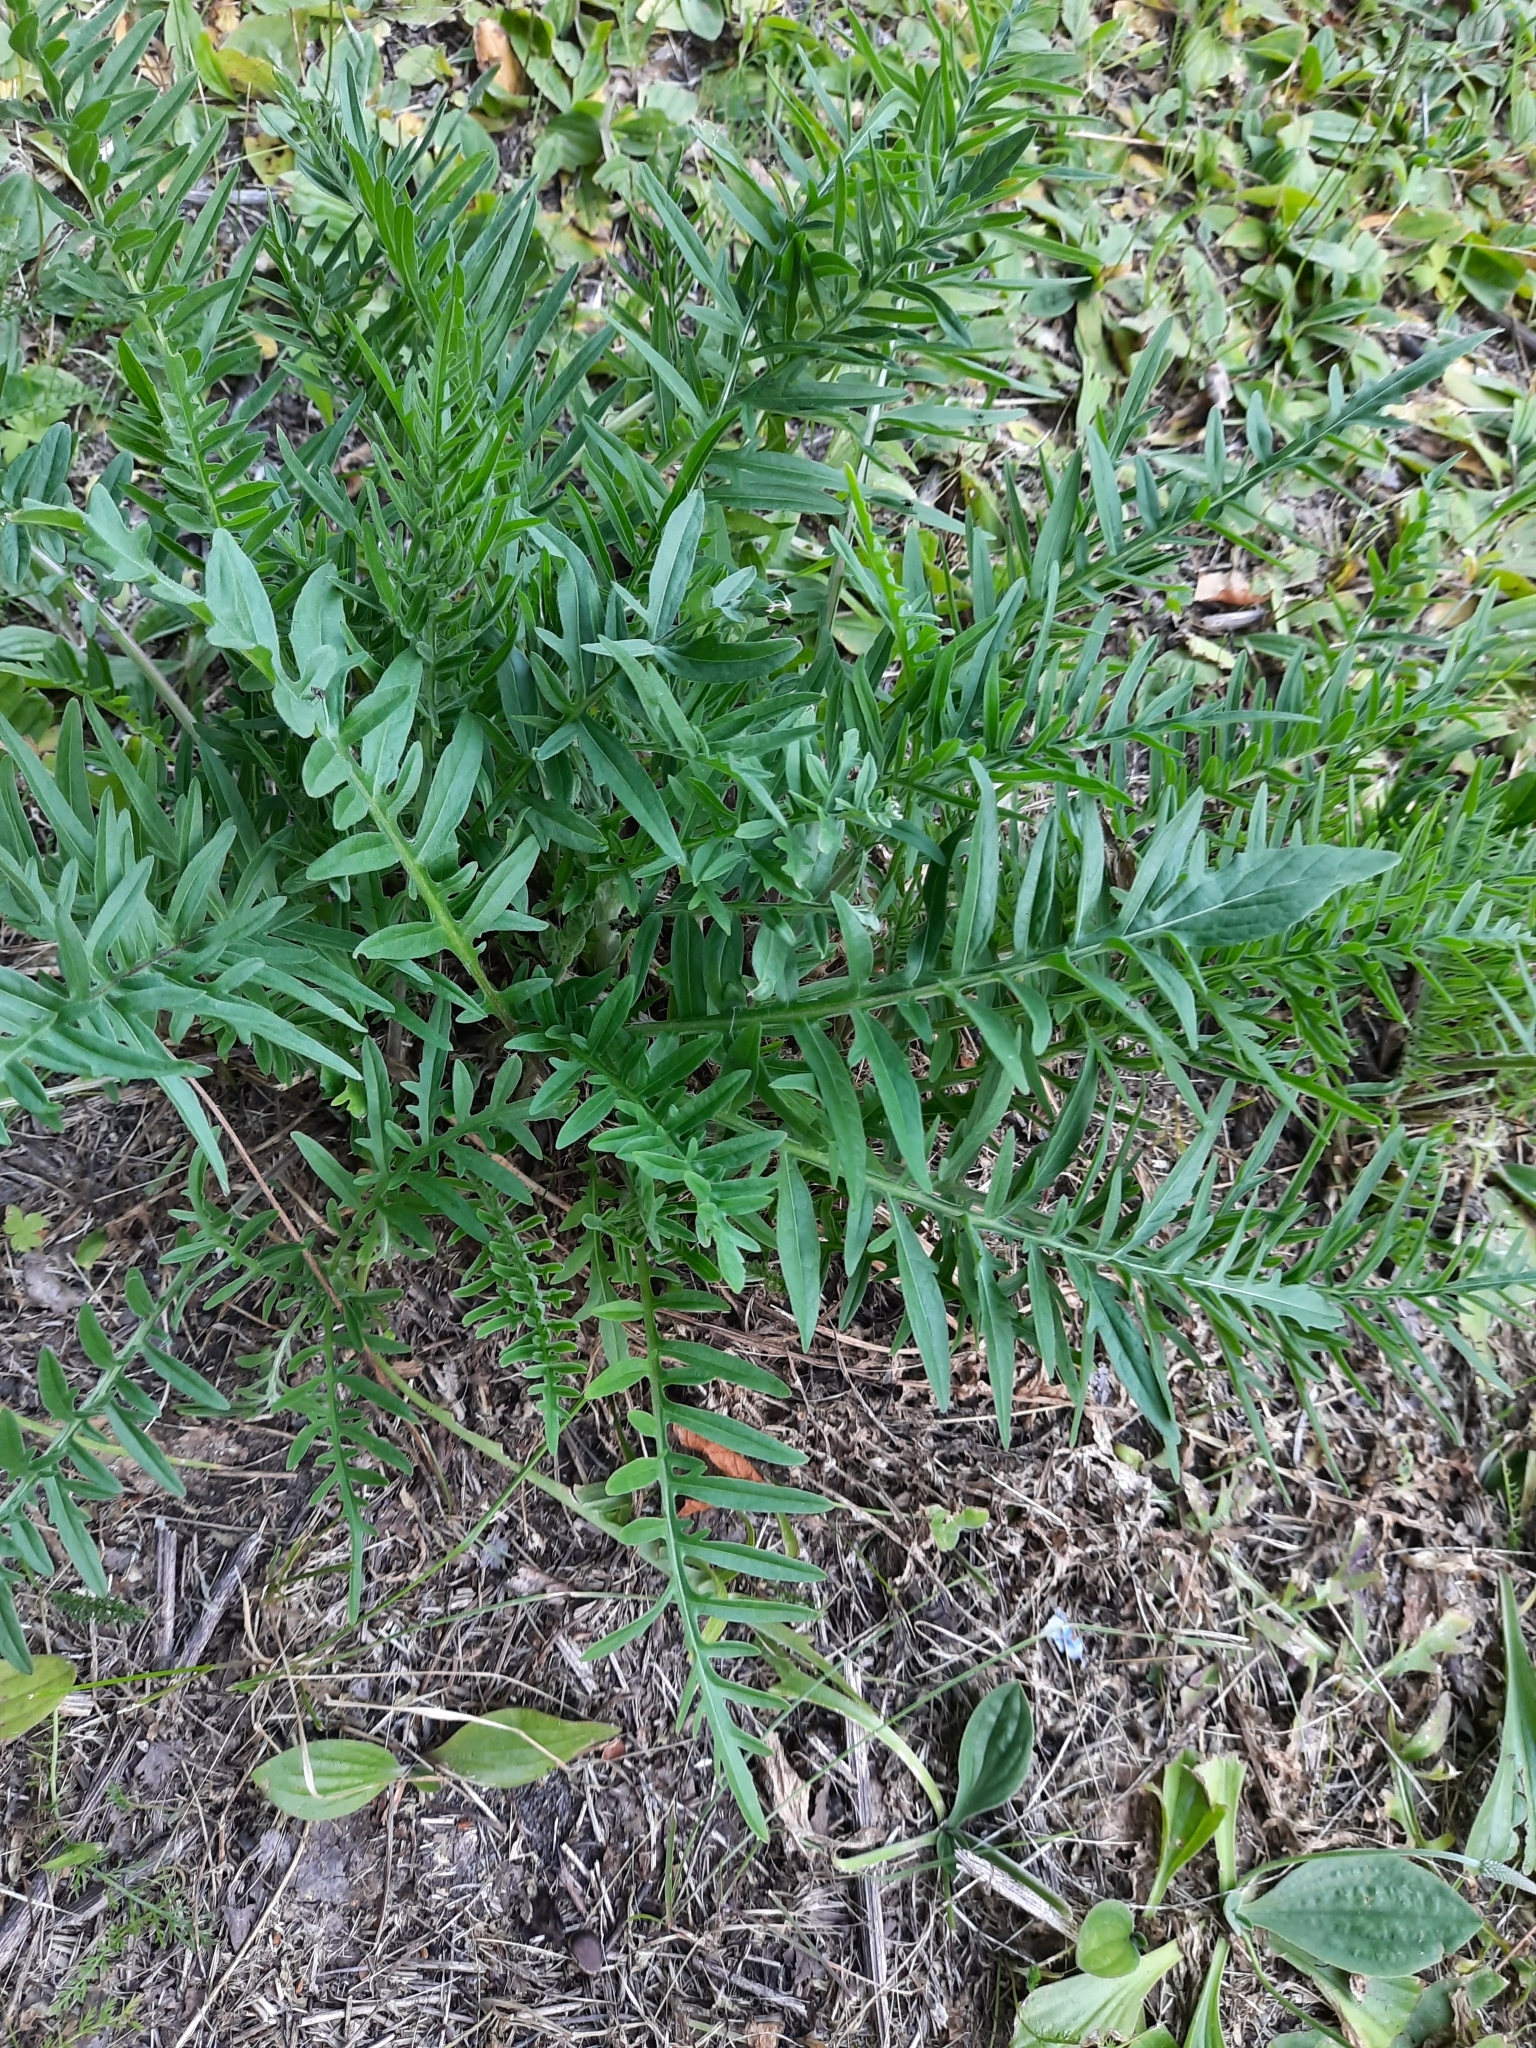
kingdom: Plantae
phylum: Tracheophyta
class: Magnoliopsida
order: Asterales
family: Asteraceae
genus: Centaurea
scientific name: Centaurea scabiosa
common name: Greater knapweed
